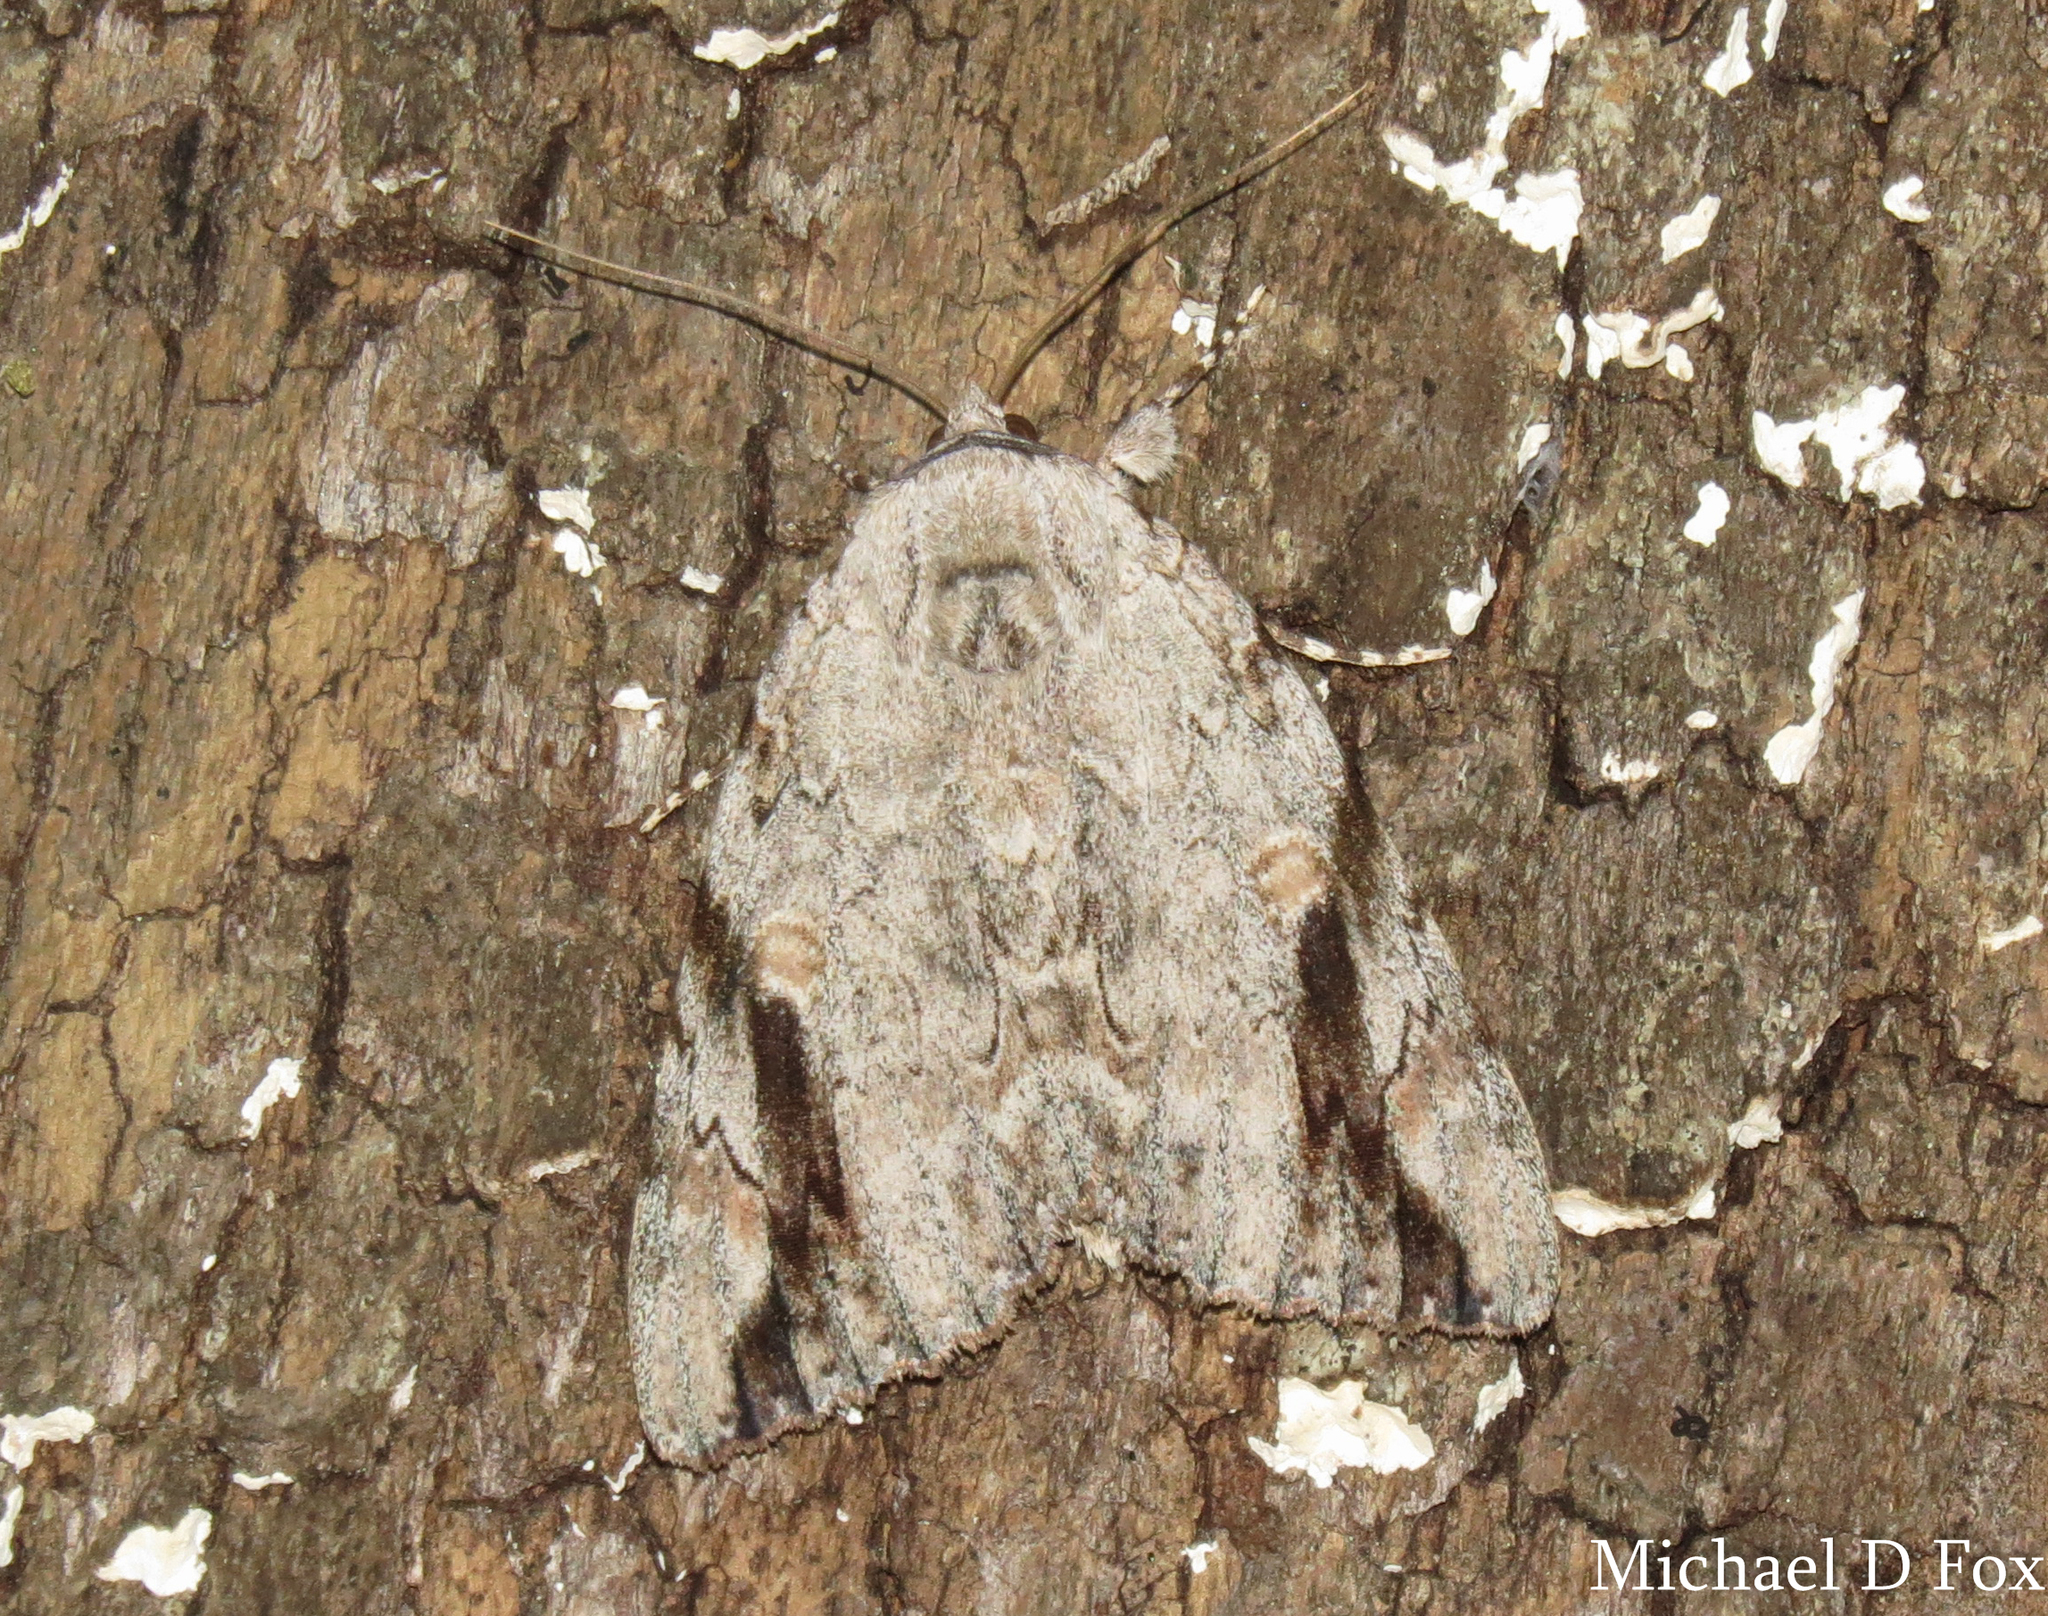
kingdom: Animalia
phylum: Arthropoda
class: Insecta
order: Lepidoptera
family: Erebidae
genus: Catocala
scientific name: Catocala maestosa
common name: Sad underwing
